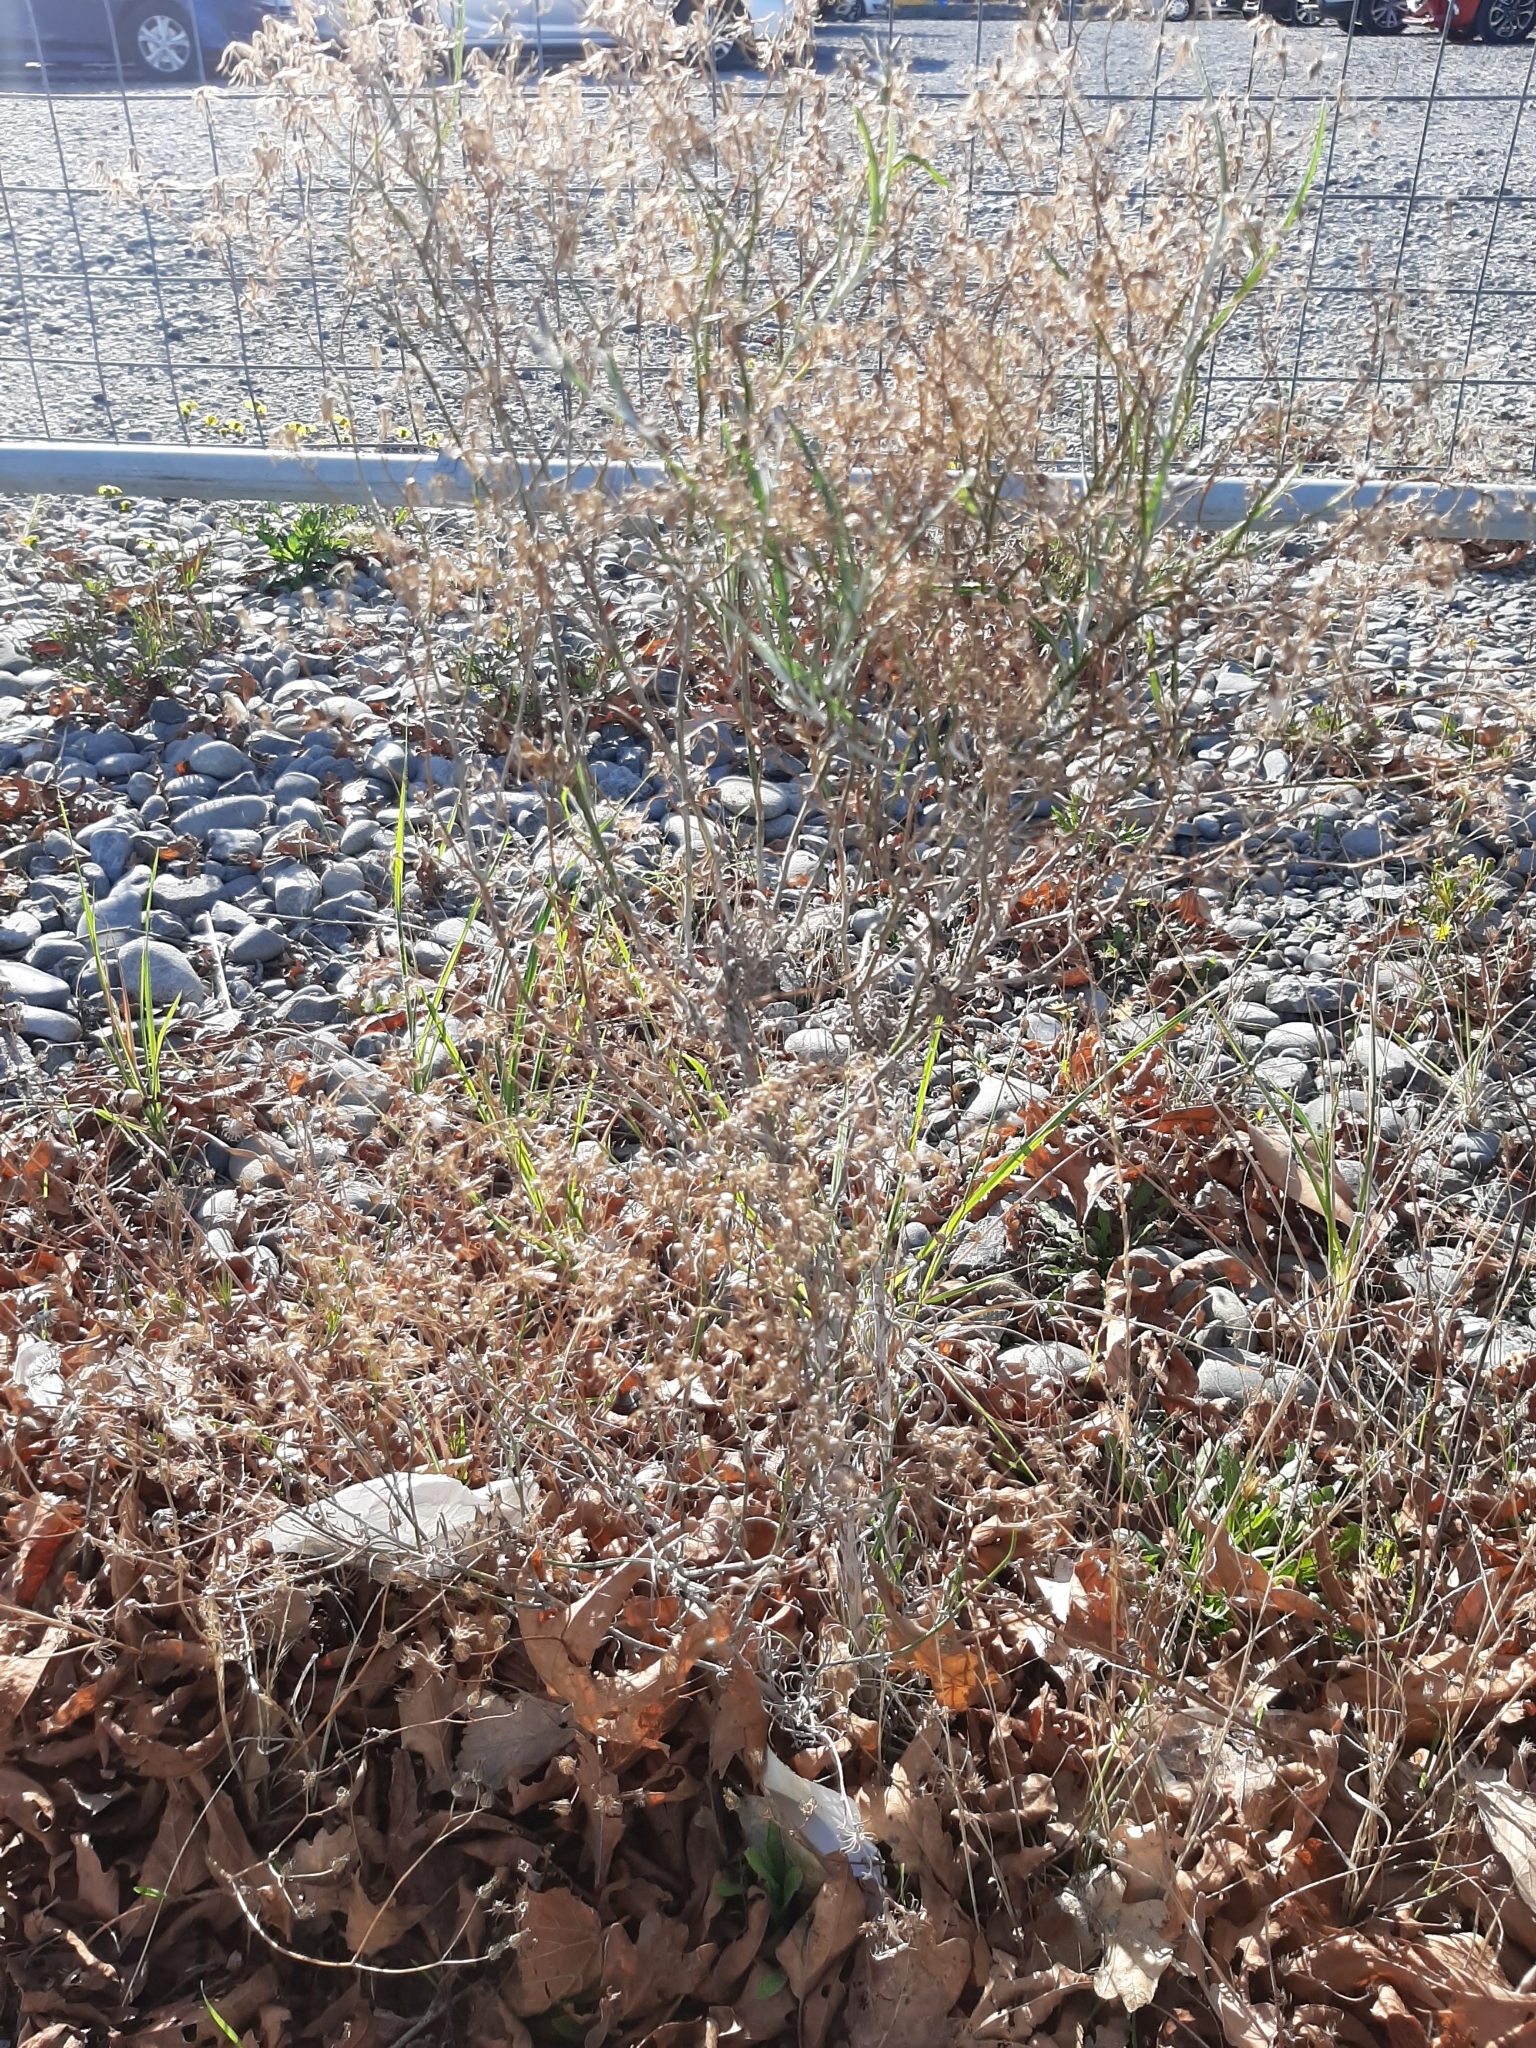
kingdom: Plantae
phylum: Tracheophyta
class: Magnoliopsida
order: Asterales
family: Asteraceae
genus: Senecio
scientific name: Senecio quadridentatus
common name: Cotton fireweed
